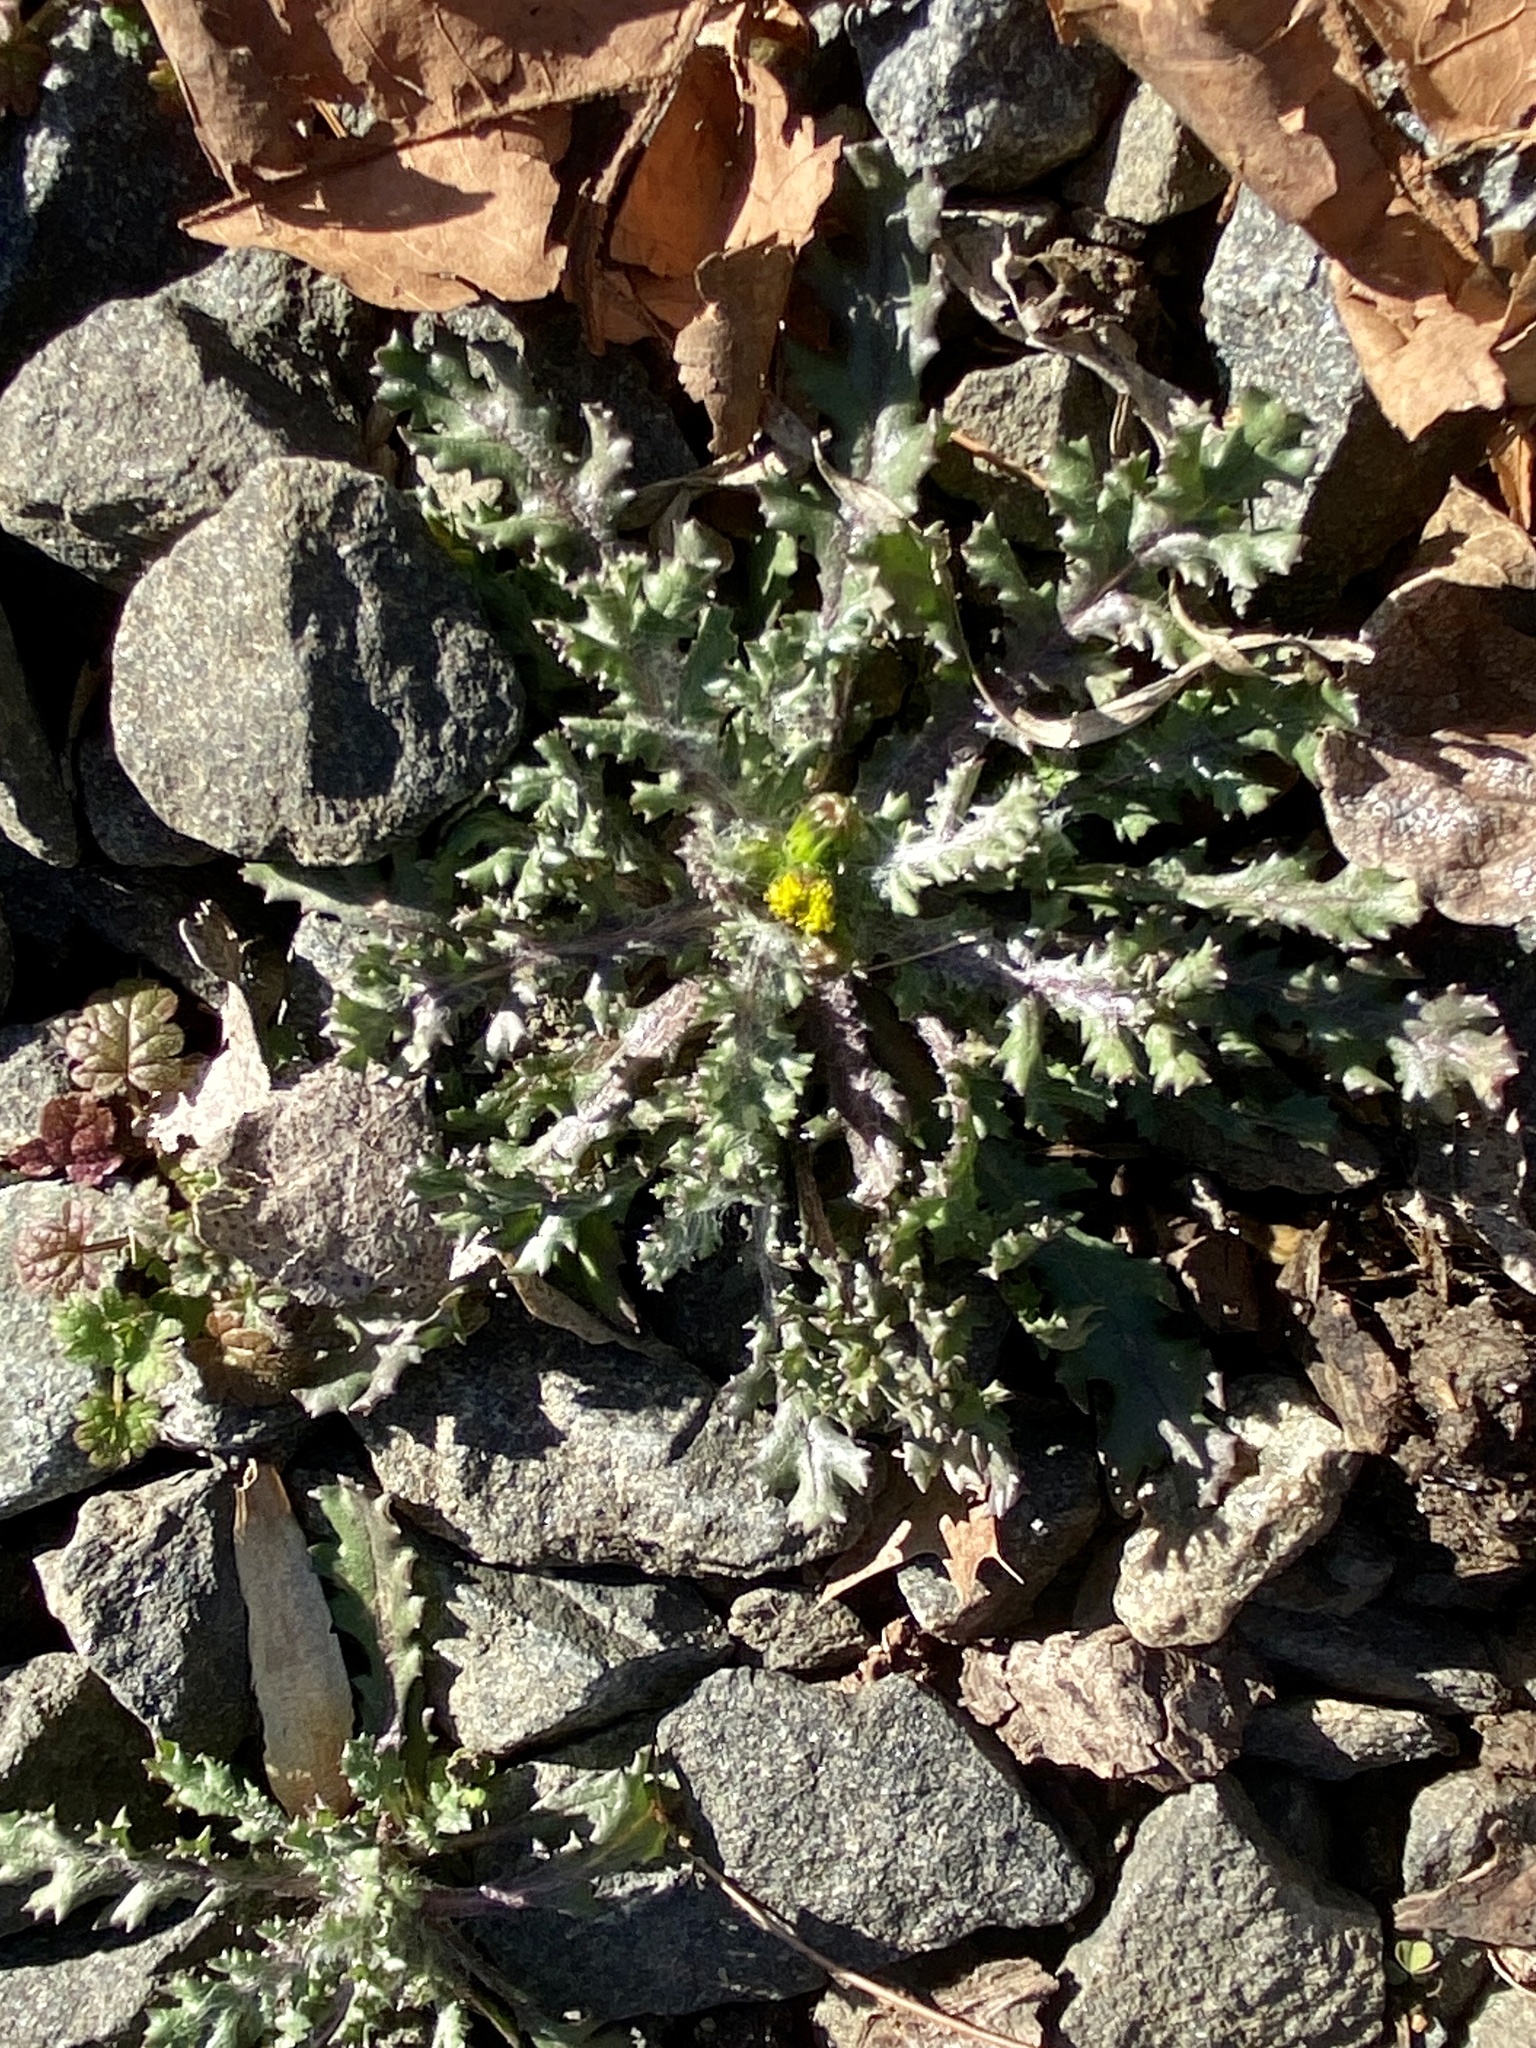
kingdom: Plantae
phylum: Tracheophyta
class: Magnoliopsida
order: Asterales
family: Asteraceae
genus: Senecio
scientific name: Senecio vulgaris
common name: Old-man-in-the-spring
